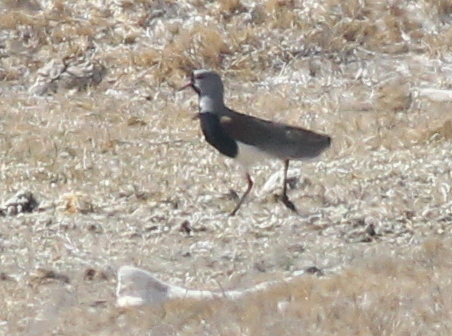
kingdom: Animalia
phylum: Chordata
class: Aves
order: Charadriiformes
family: Charadriidae
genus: Vanellus
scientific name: Vanellus chilensis
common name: Southern lapwing
